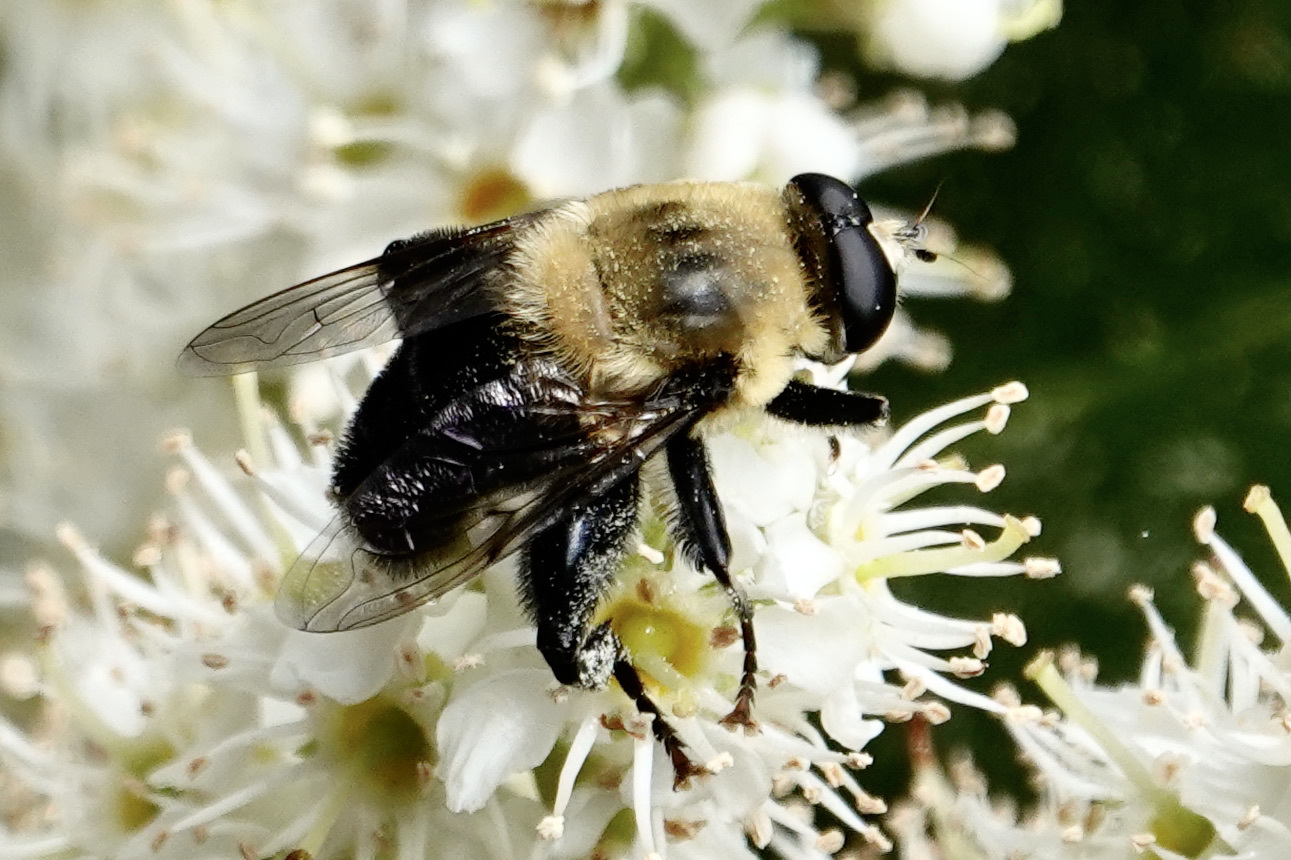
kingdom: Animalia
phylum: Arthropoda
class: Insecta
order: Diptera
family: Syrphidae
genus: Imatisma
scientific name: Imatisma bautias
